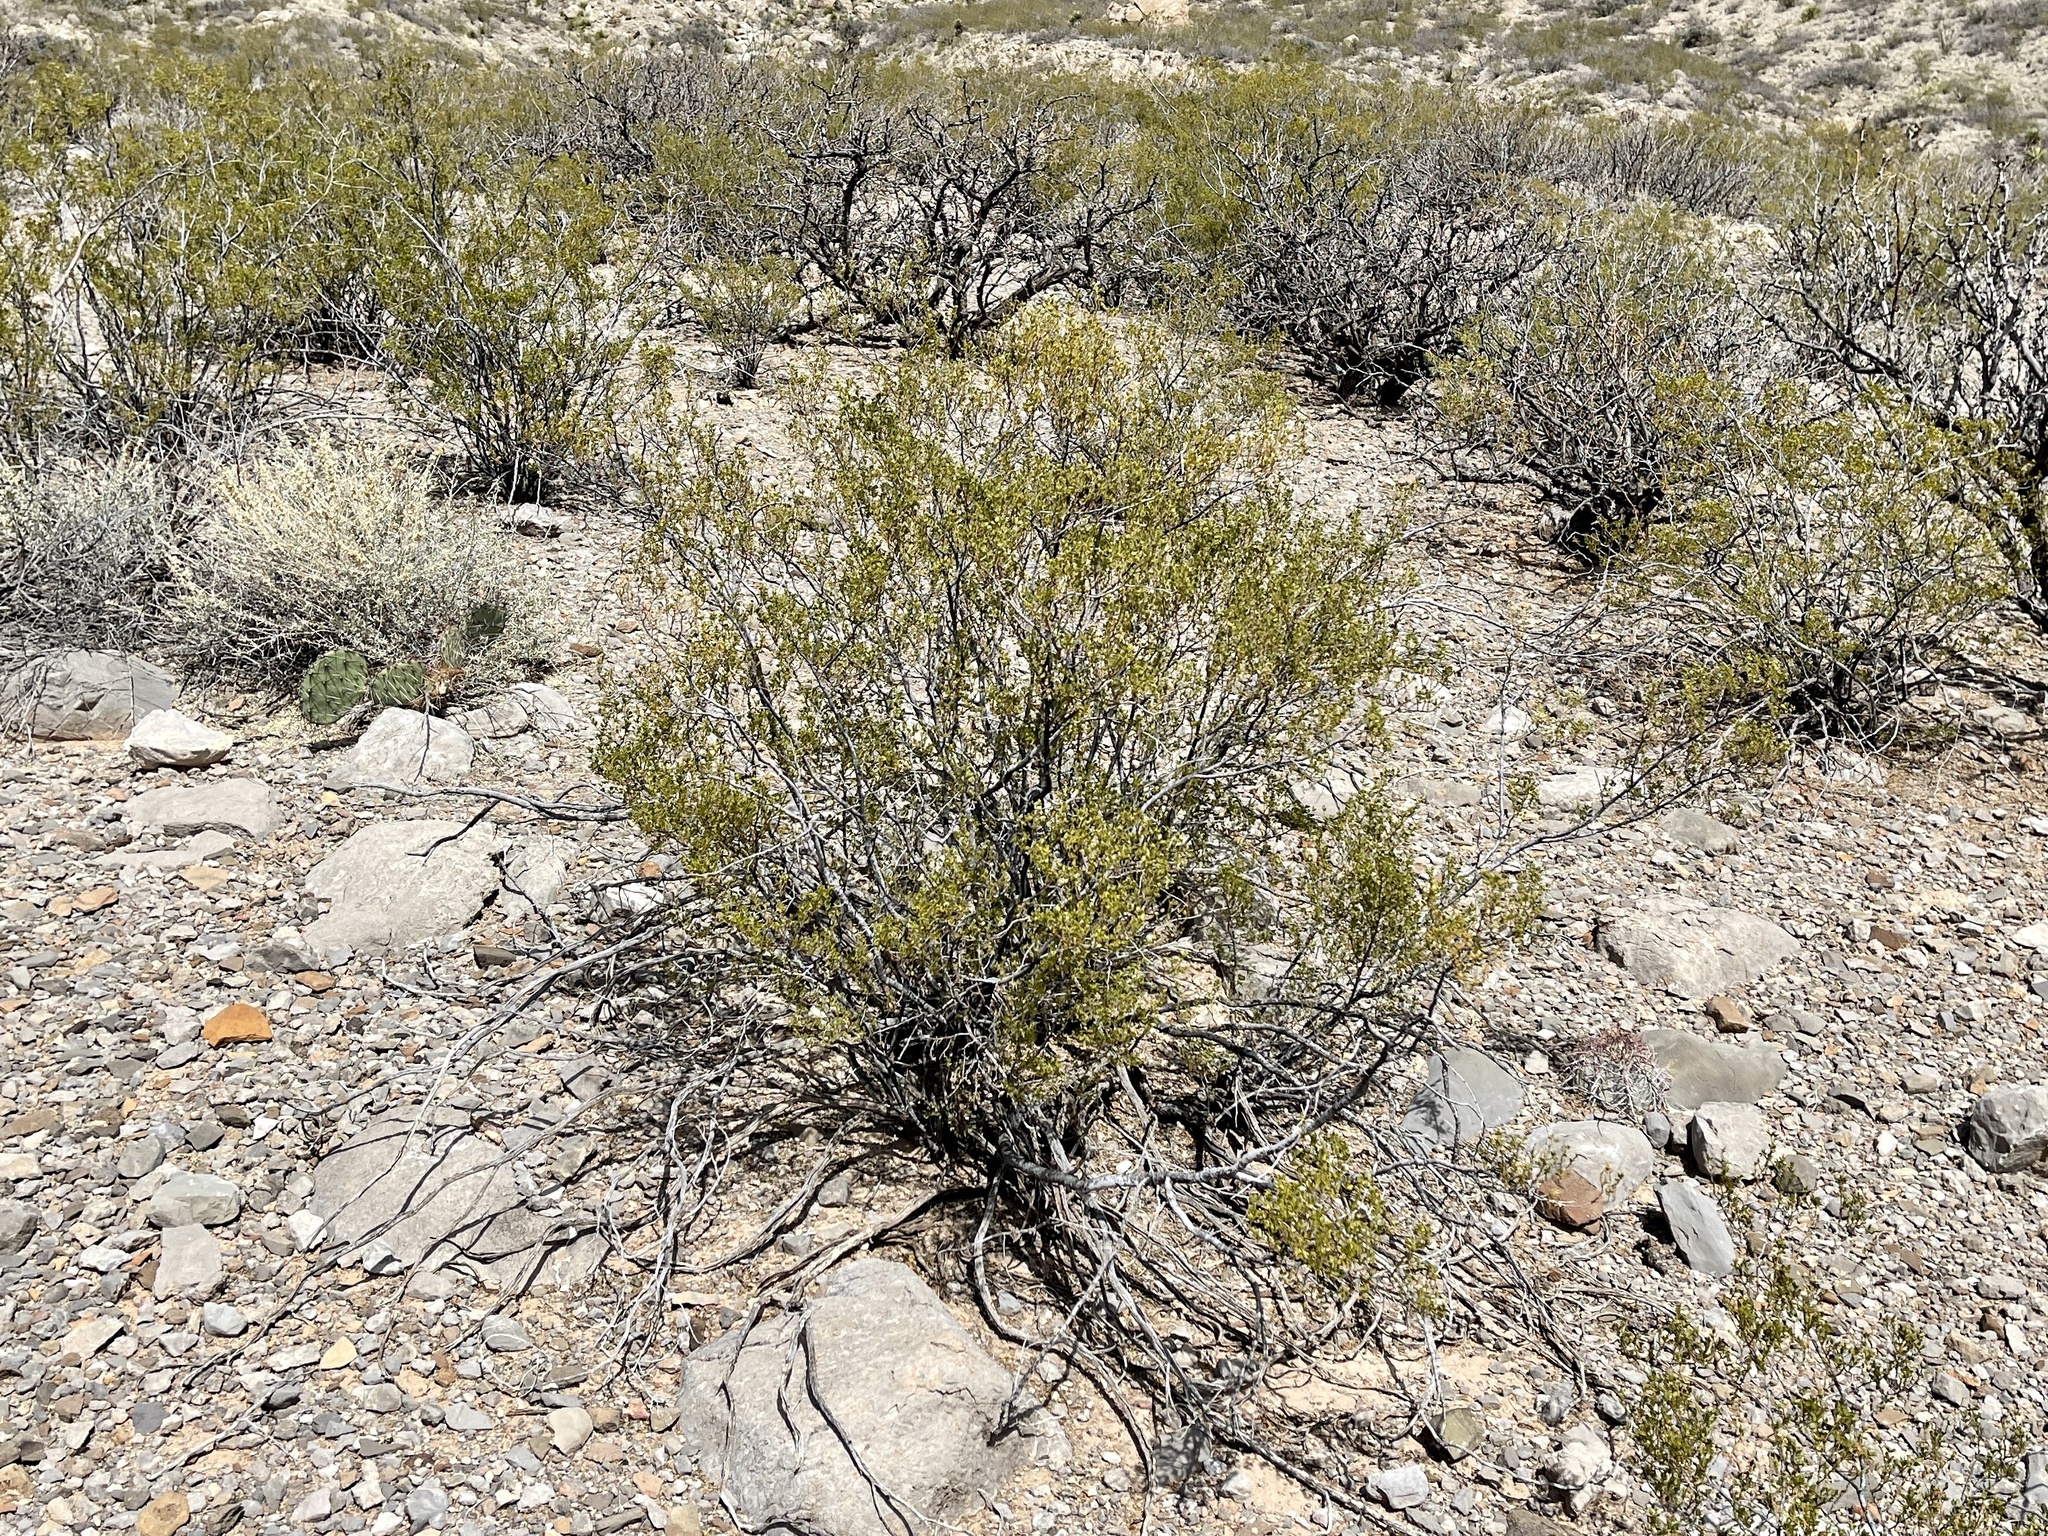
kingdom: Plantae
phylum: Tracheophyta
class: Magnoliopsida
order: Zygophyllales
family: Zygophyllaceae
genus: Larrea
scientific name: Larrea tridentata
